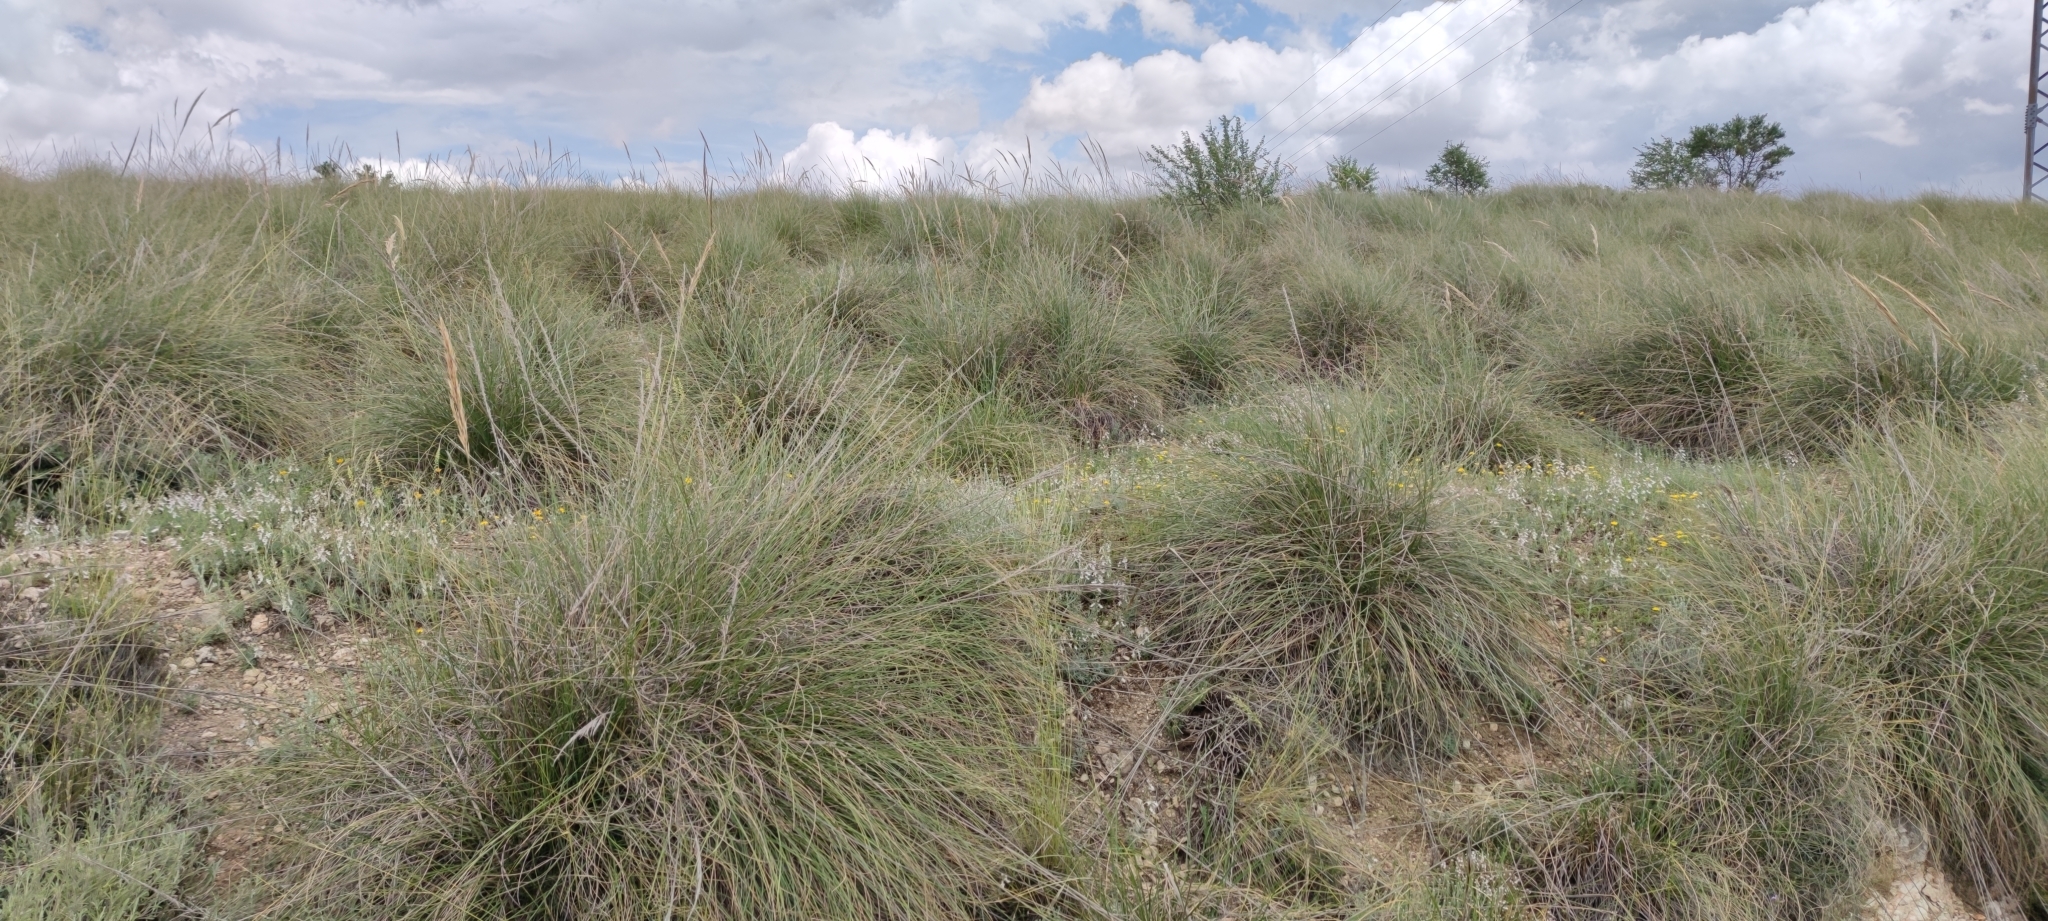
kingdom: Plantae
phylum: Tracheophyta
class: Liliopsida
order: Poales
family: Poaceae
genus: Macrochloa
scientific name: Macrochloa tenacissima
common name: Alfa grass
